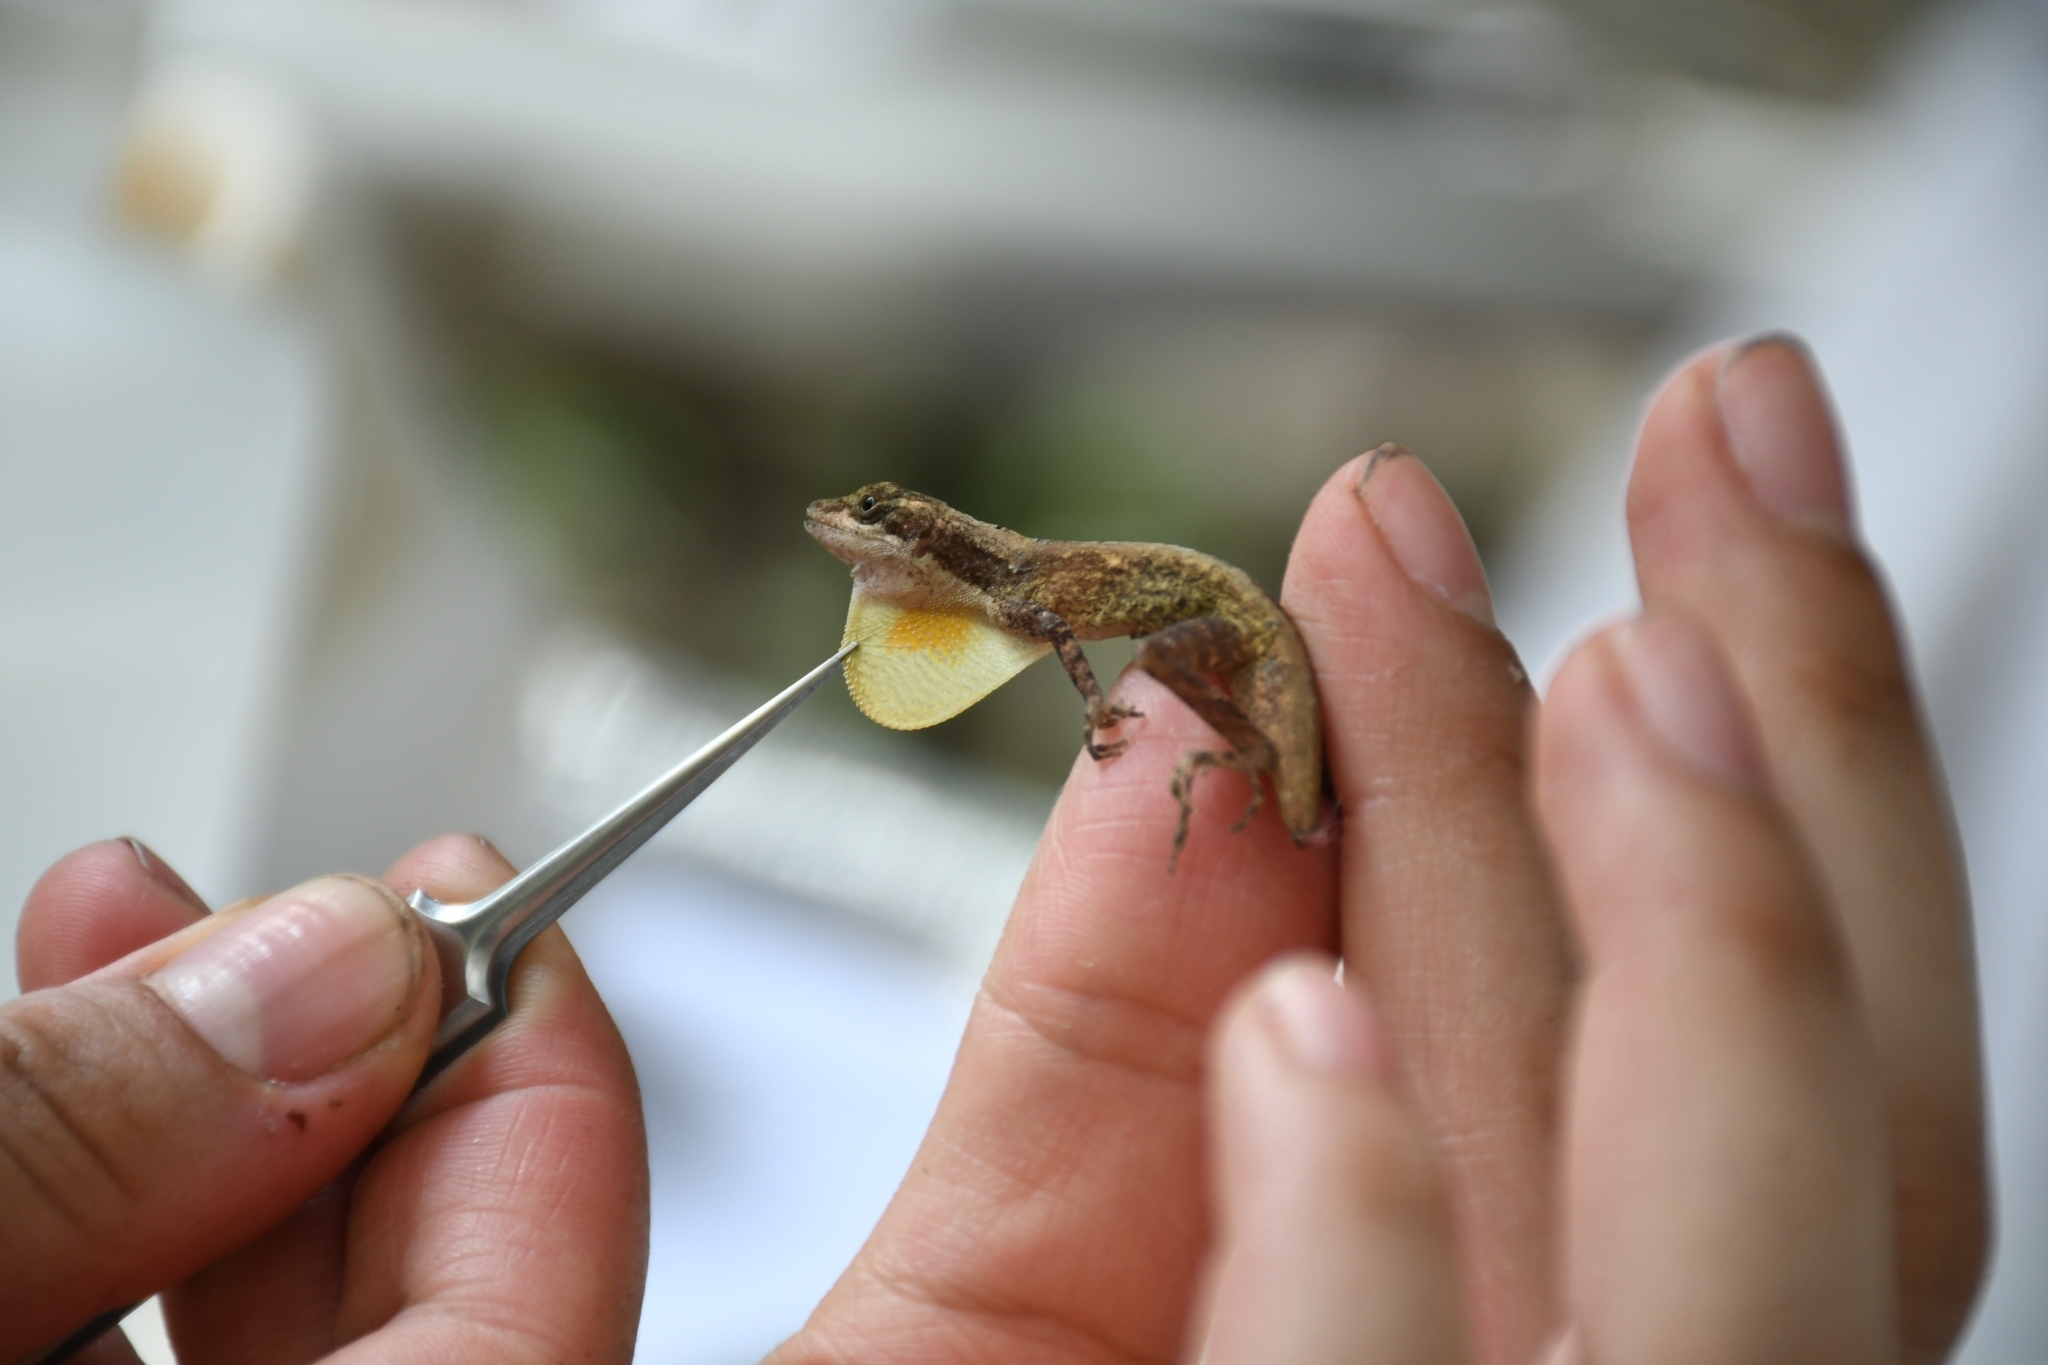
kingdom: Animalia
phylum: Chordata
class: Squamata
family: Dactyloidae
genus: Anolis
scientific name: Anolis rodriguezii
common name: Middle american smooth anole
